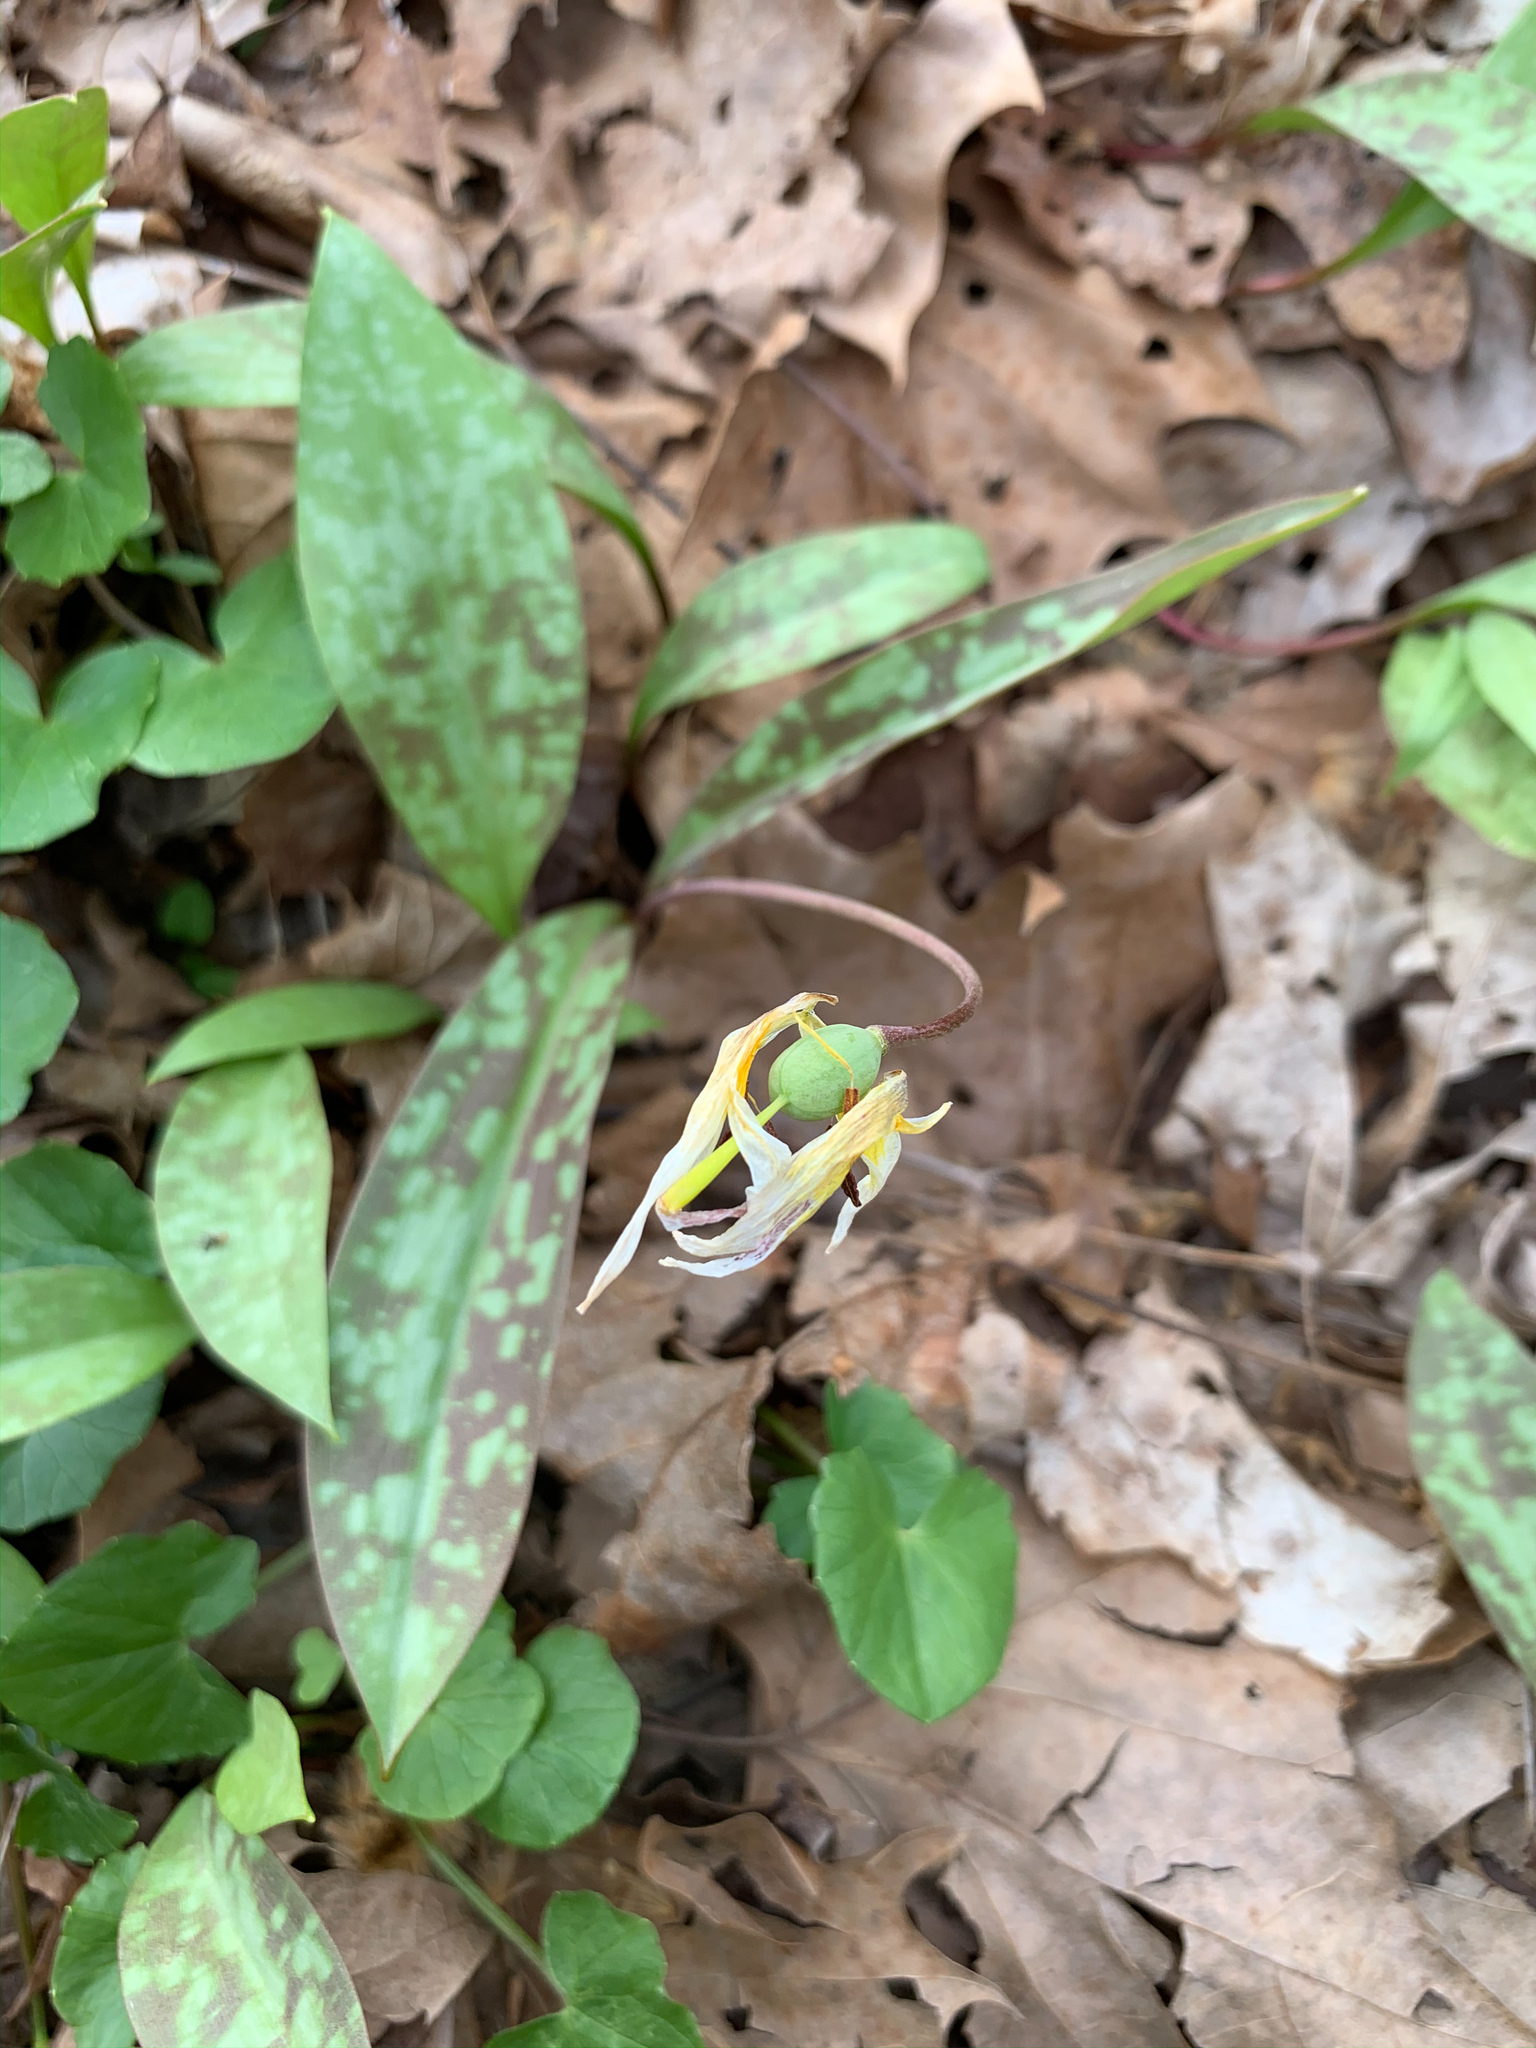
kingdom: Plantae
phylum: Tracheophyta
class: Liliopsida
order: Liliales
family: Liliaceae
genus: Erythronium
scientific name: Erythronium americanum
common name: Yellow adder's-tongue
